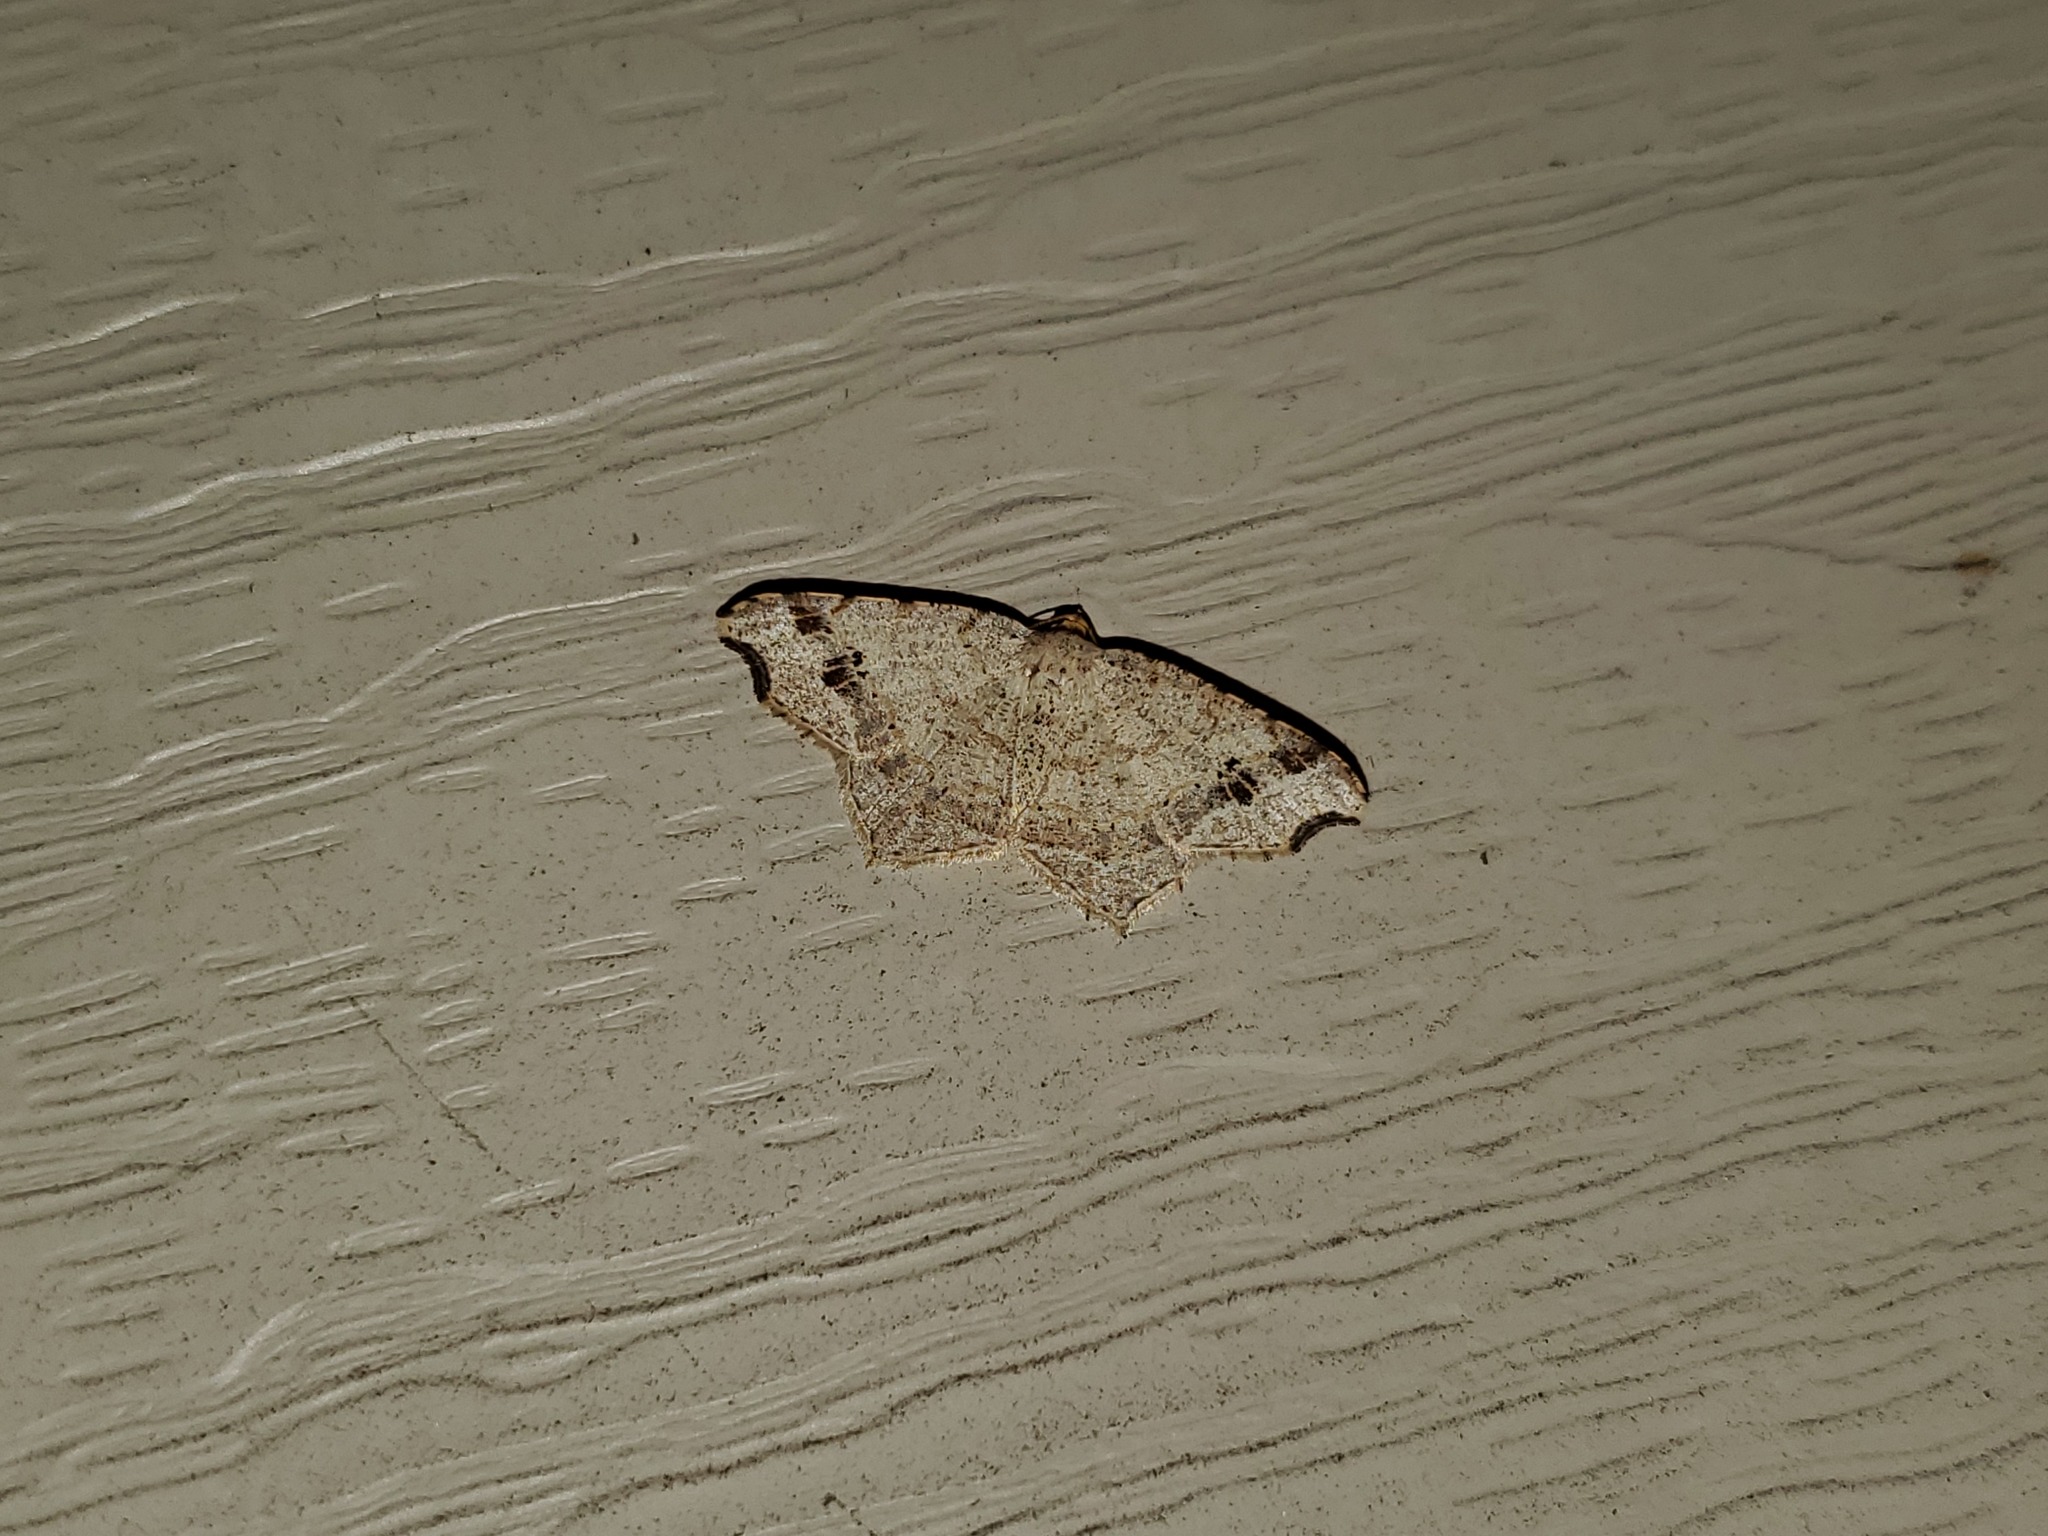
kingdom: Animalia
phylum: Arthropoda
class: Insecta
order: Lepidoptera
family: Geometridae
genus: Macaria
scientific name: Macaria aemulataria
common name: Common angle
